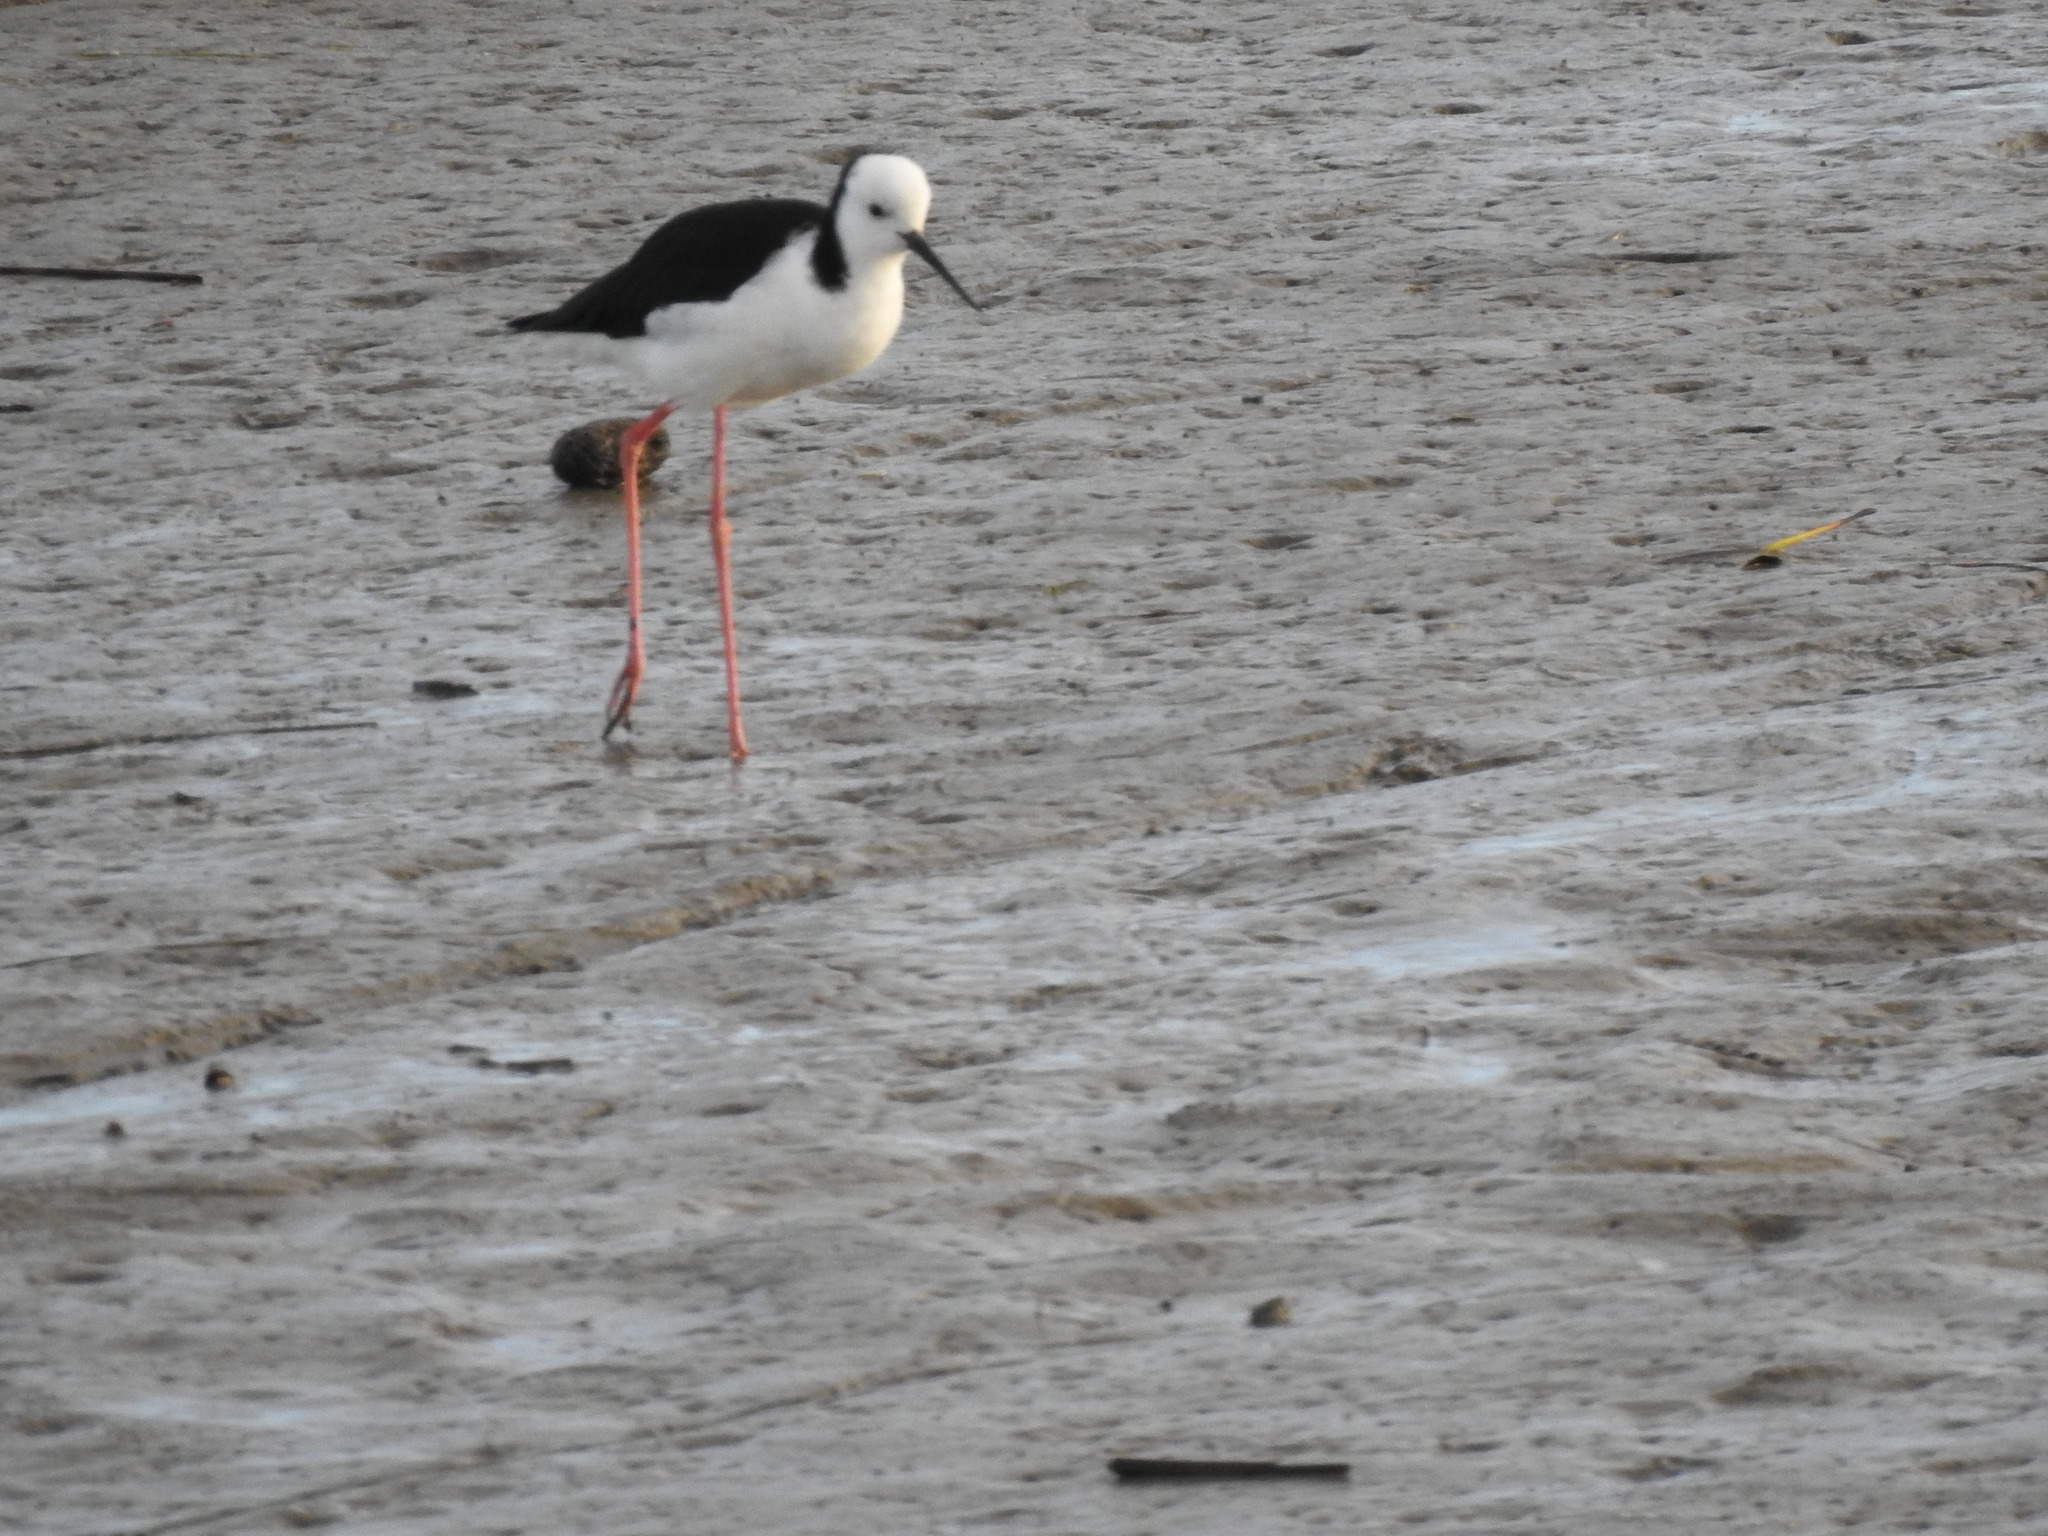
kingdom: Animalia
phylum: Chordata
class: Aves
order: Charadriiformes
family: Recurvirostridae
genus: Himantopus
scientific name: Himantopus leucocephalus
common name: White-headed stilt
